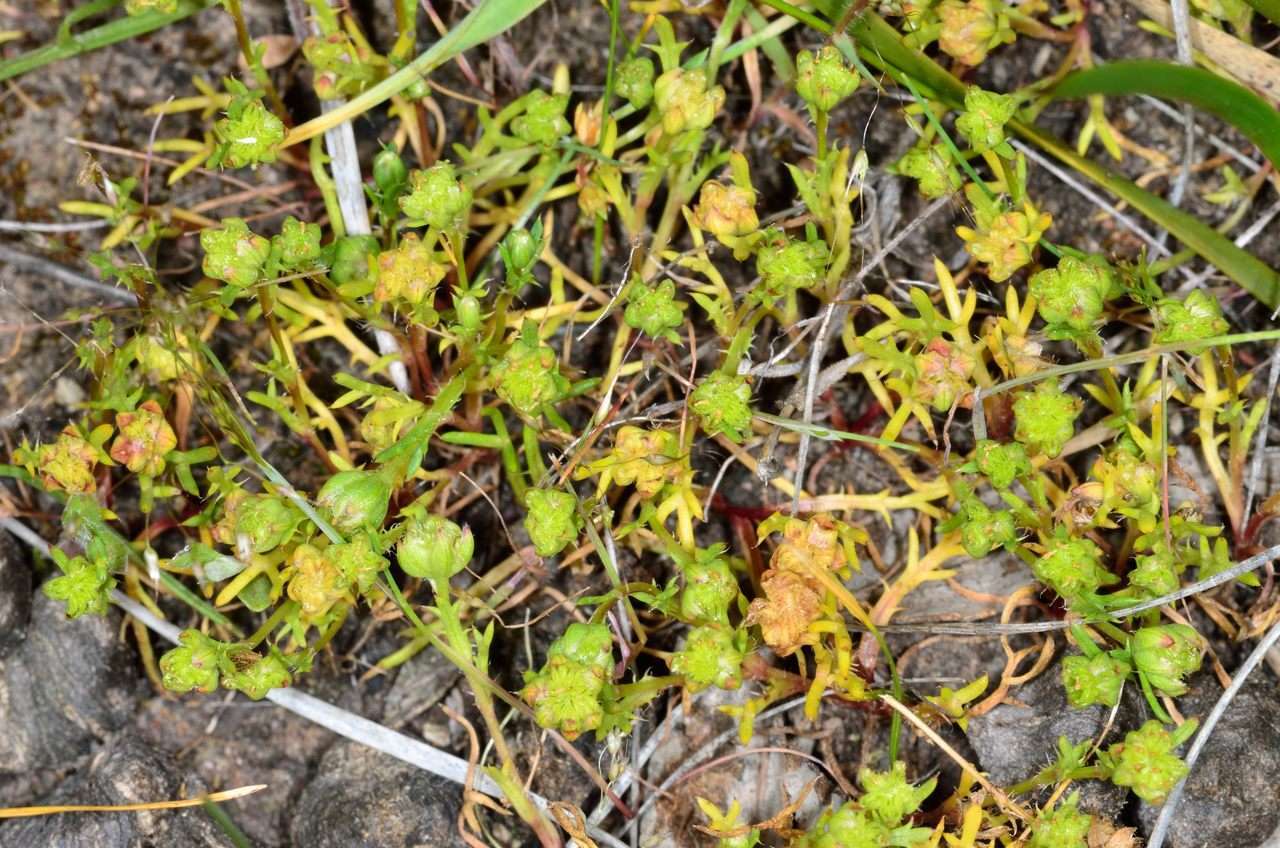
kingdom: Plantae
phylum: Tracheophyta
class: Magnoliopsida
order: Asterales
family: Asteraceae
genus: Brachyscome
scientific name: Brachyscome perpusilla
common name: Tiny daisy
